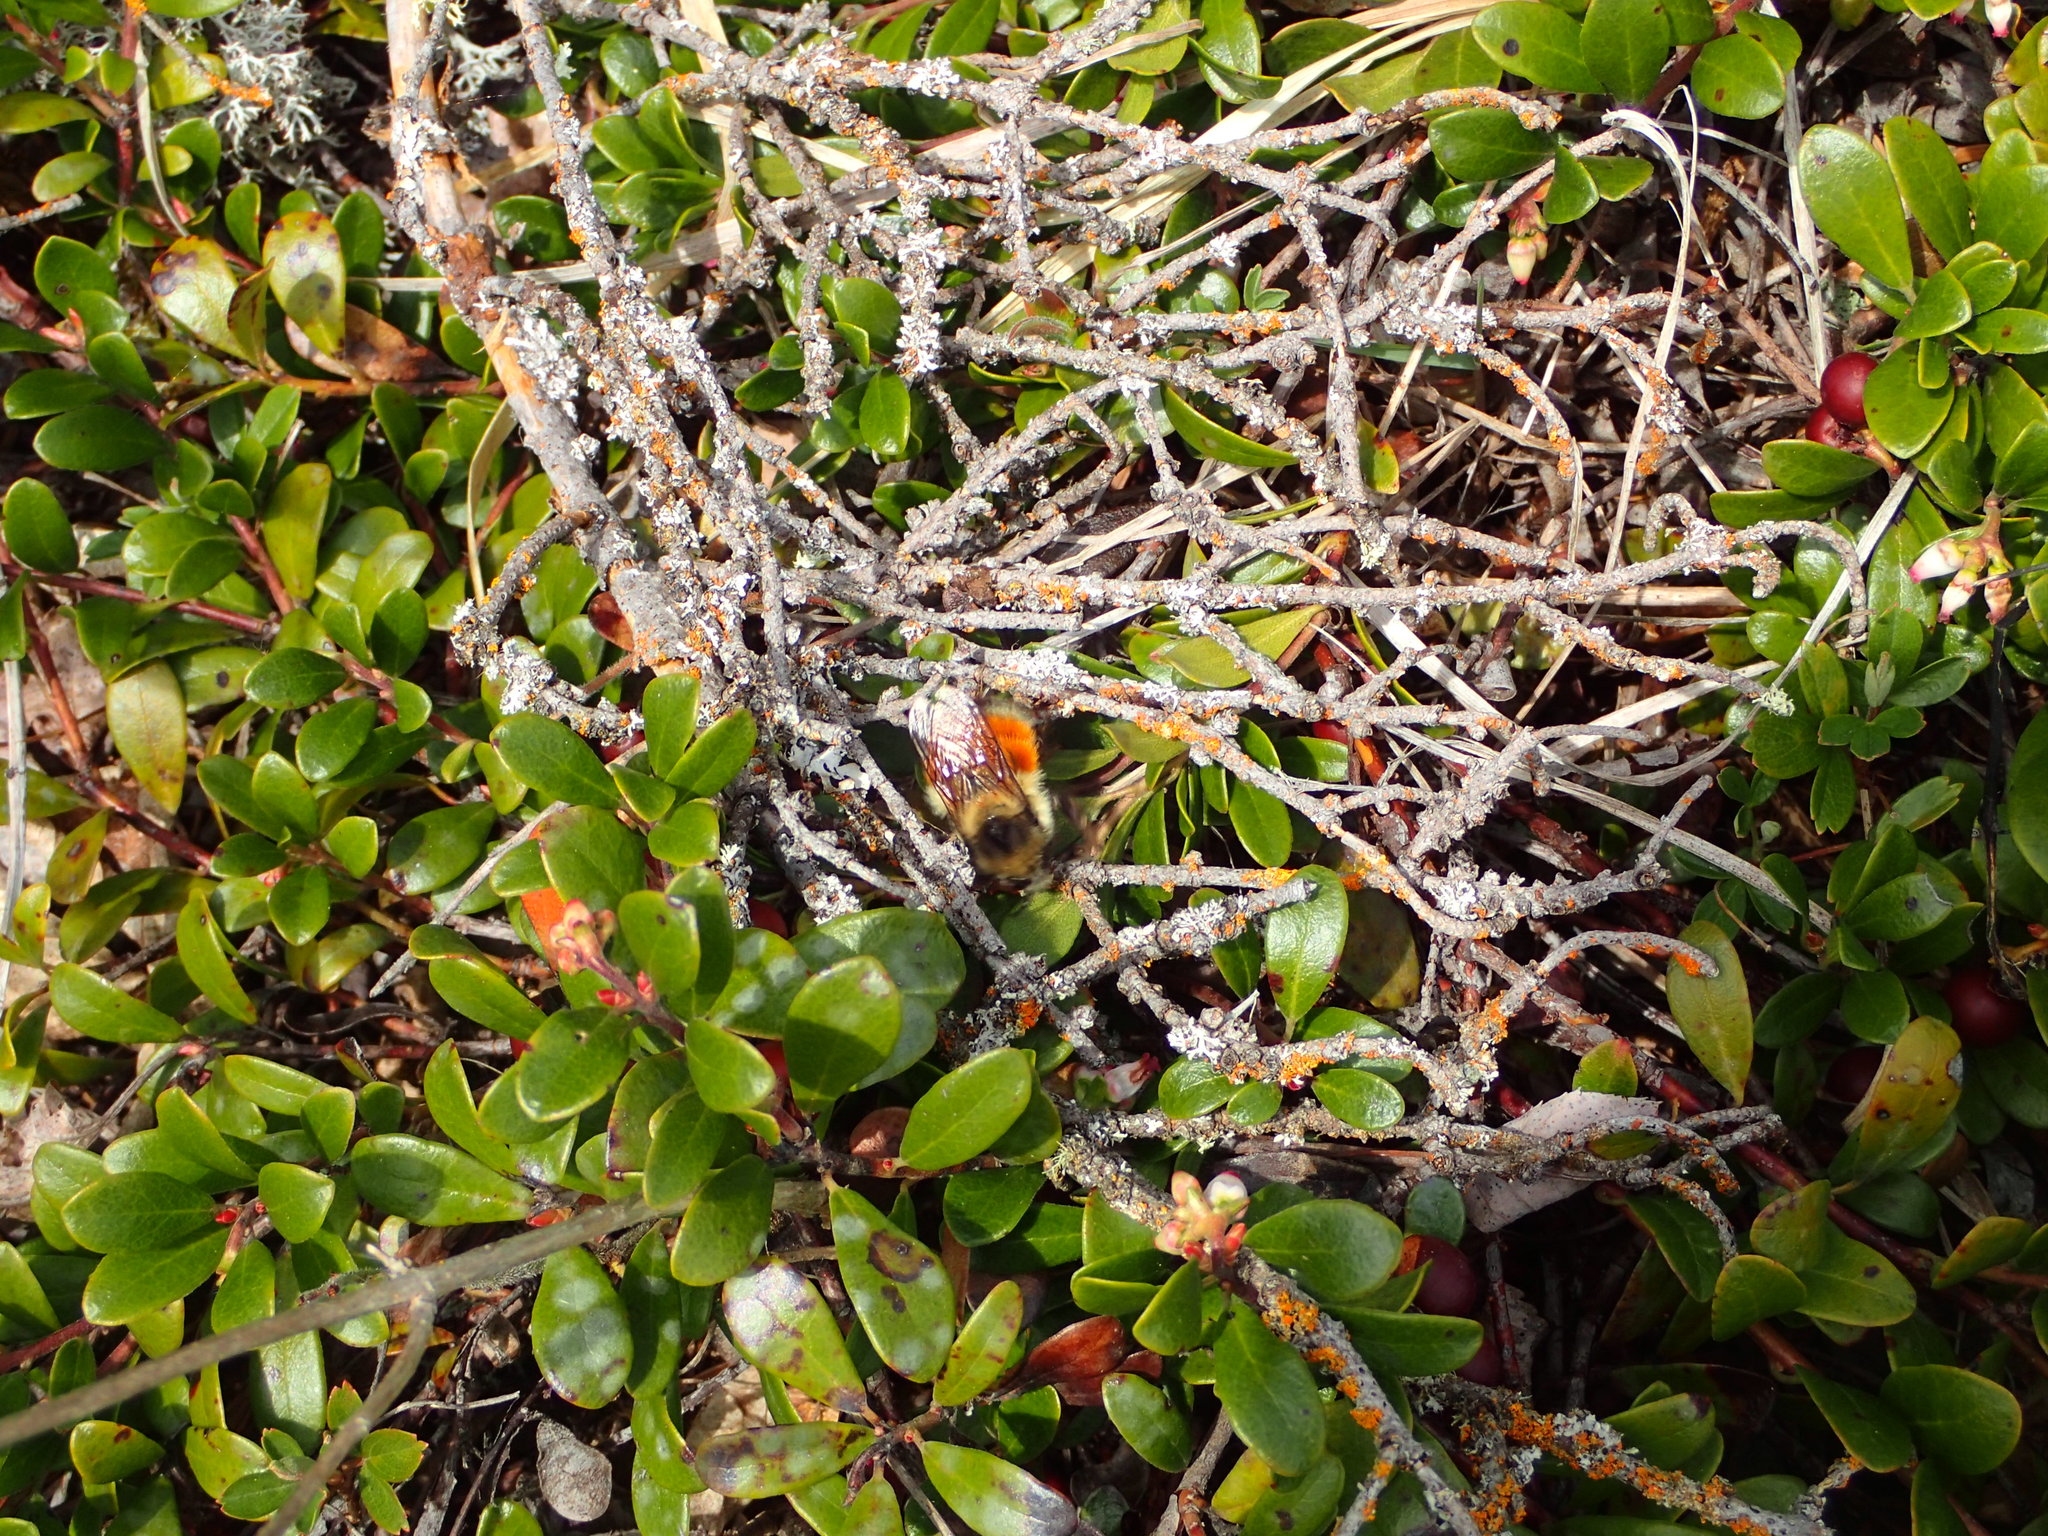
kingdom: Animalia
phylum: Arthropoda
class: Insecta
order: Hymenoptera
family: Apidae
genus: Bombus
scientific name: Bombus melanopygus
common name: Black tail bumble bee
